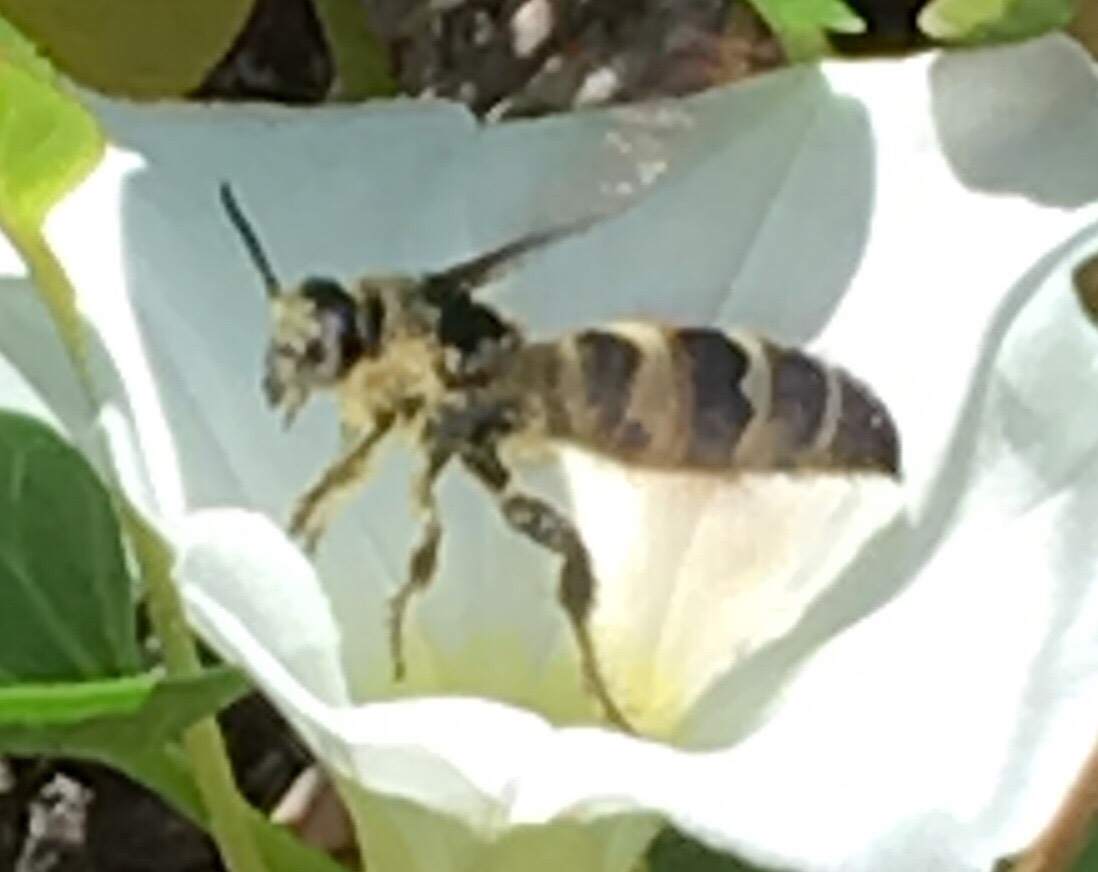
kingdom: Animalia
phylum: Arthropoda
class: Insecta
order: Hymenoptera
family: Scoliidae
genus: Dielis
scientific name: Dielis
